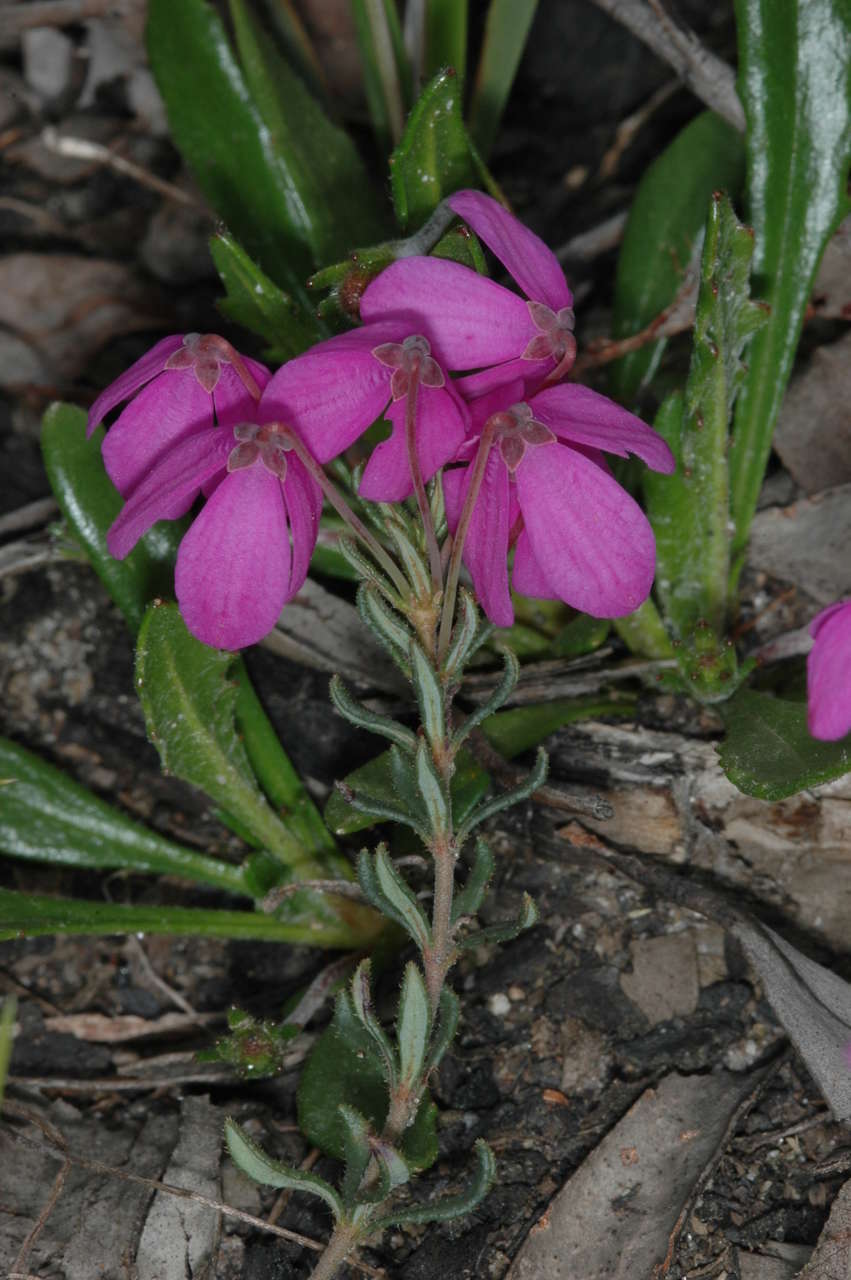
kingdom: Plantae
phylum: Tracheophyta
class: Magnoliopsida
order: Oxalidales
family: Elaeocarpaceae
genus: Tetratheca
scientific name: Tetratheca bauerifolia
